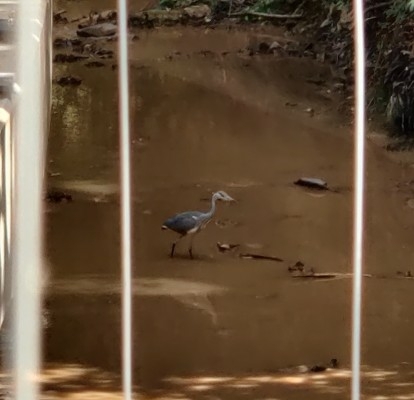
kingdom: Animalia
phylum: Chordata
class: Aves
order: Pelecaniformes
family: Ardeidae
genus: Ardea
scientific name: Ardea cinerea
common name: Grey heron
